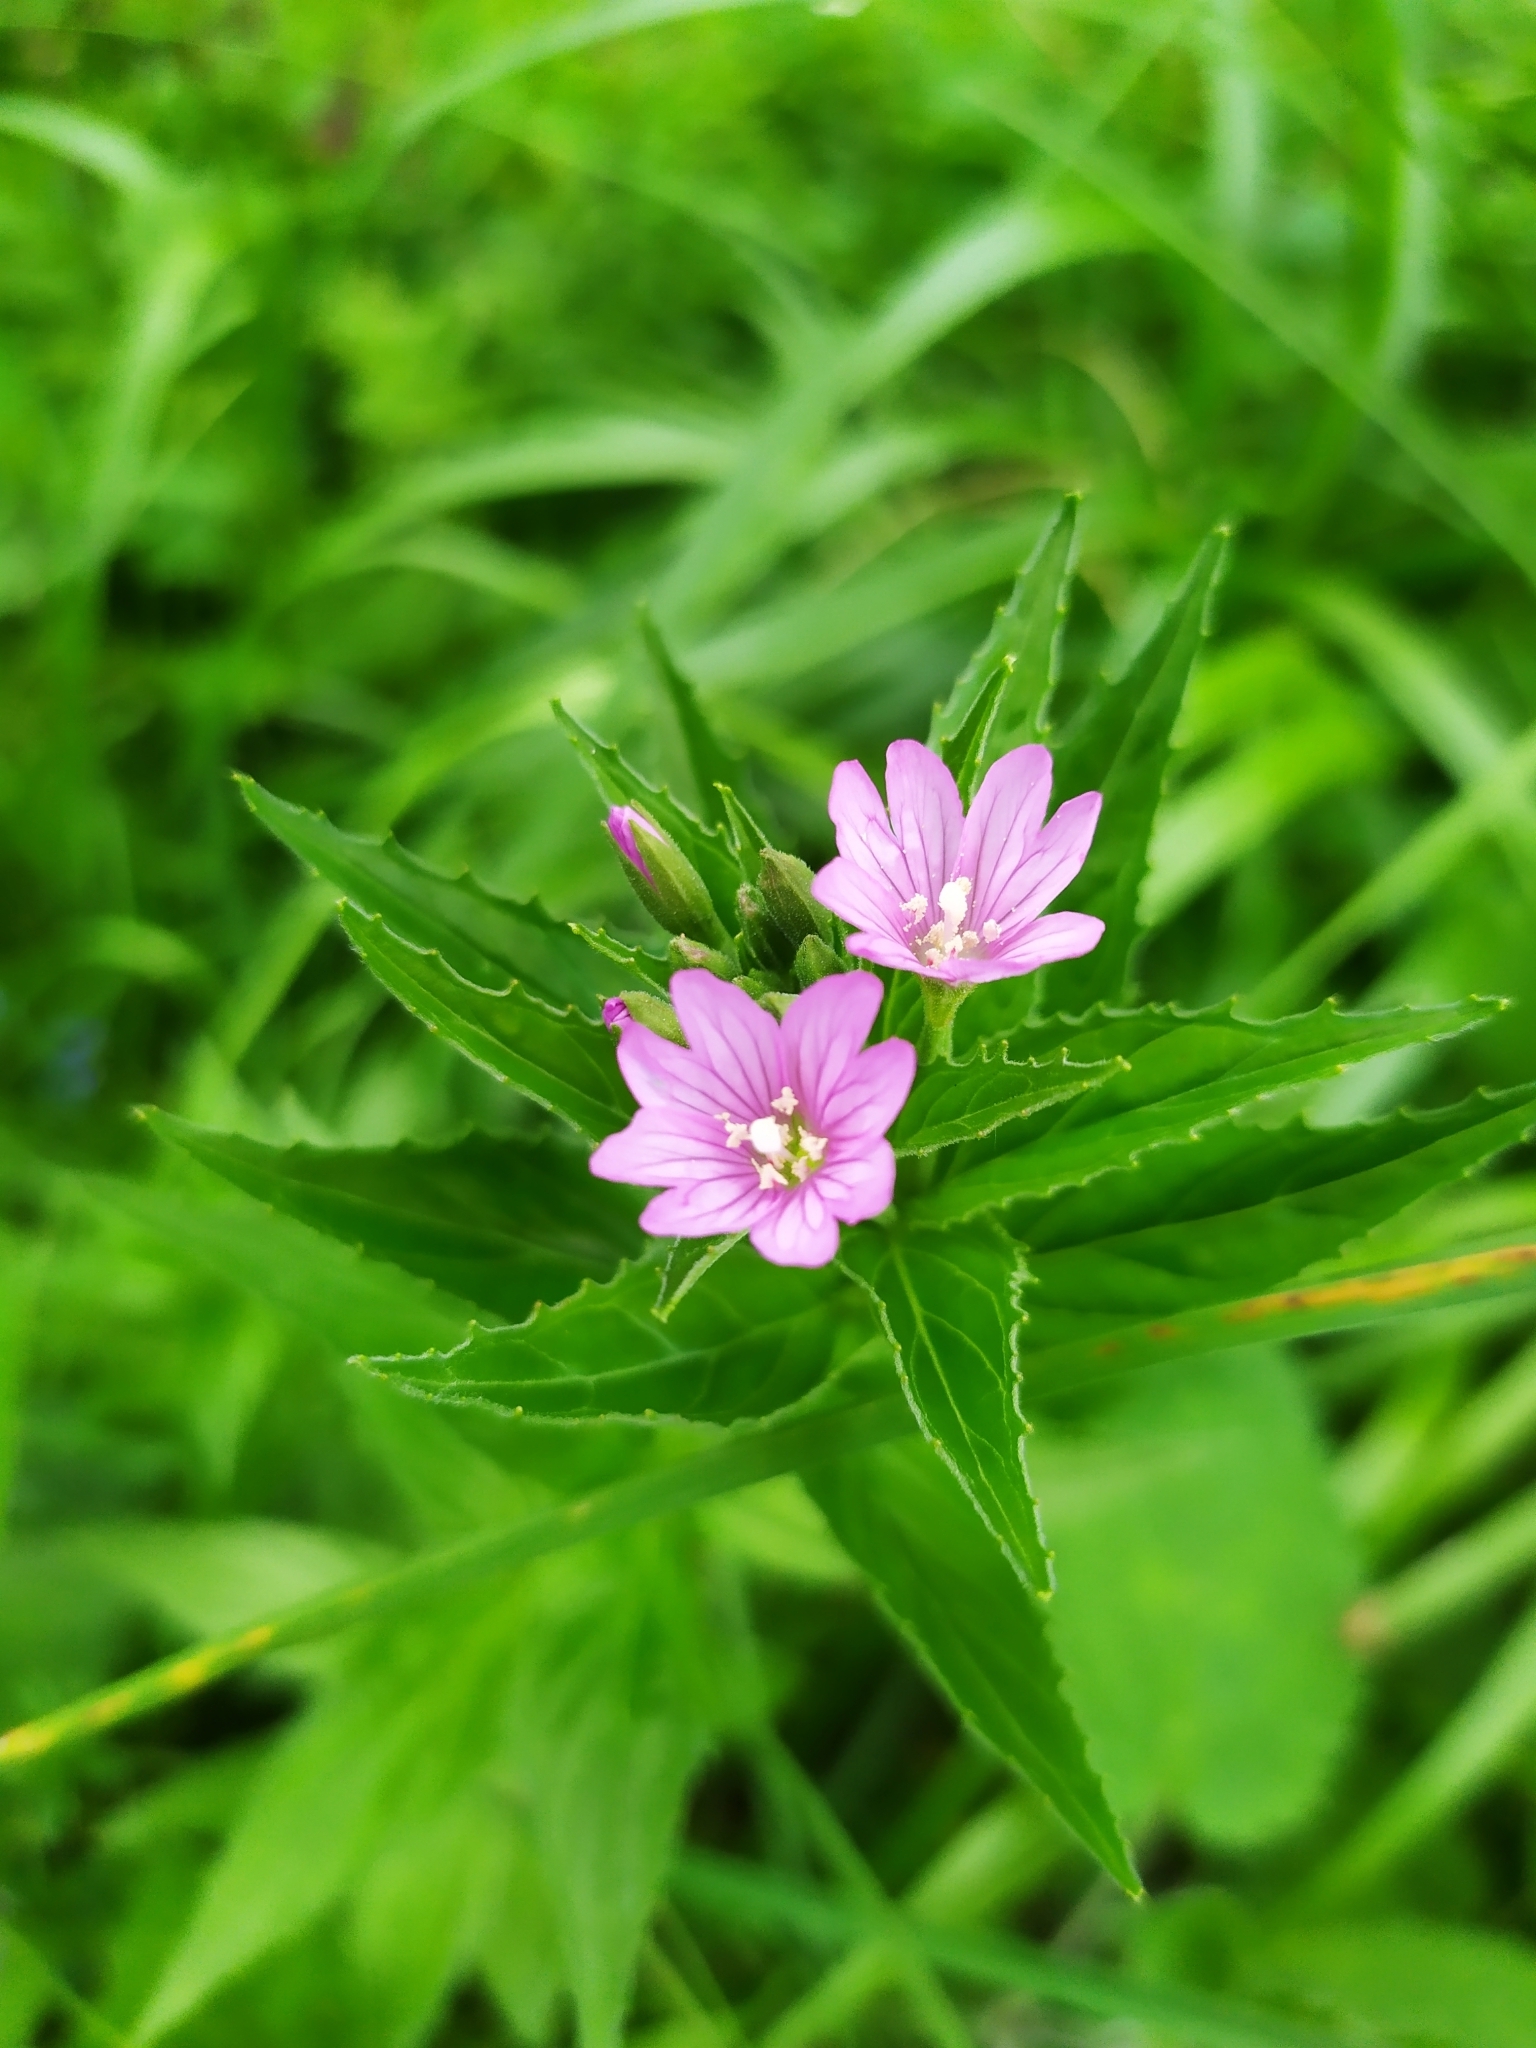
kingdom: Plantae
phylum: Tracheophyta
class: Magnoliopsida
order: Myrtales
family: Onagraceae
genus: Epilobium
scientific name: Epilobium alpestre
